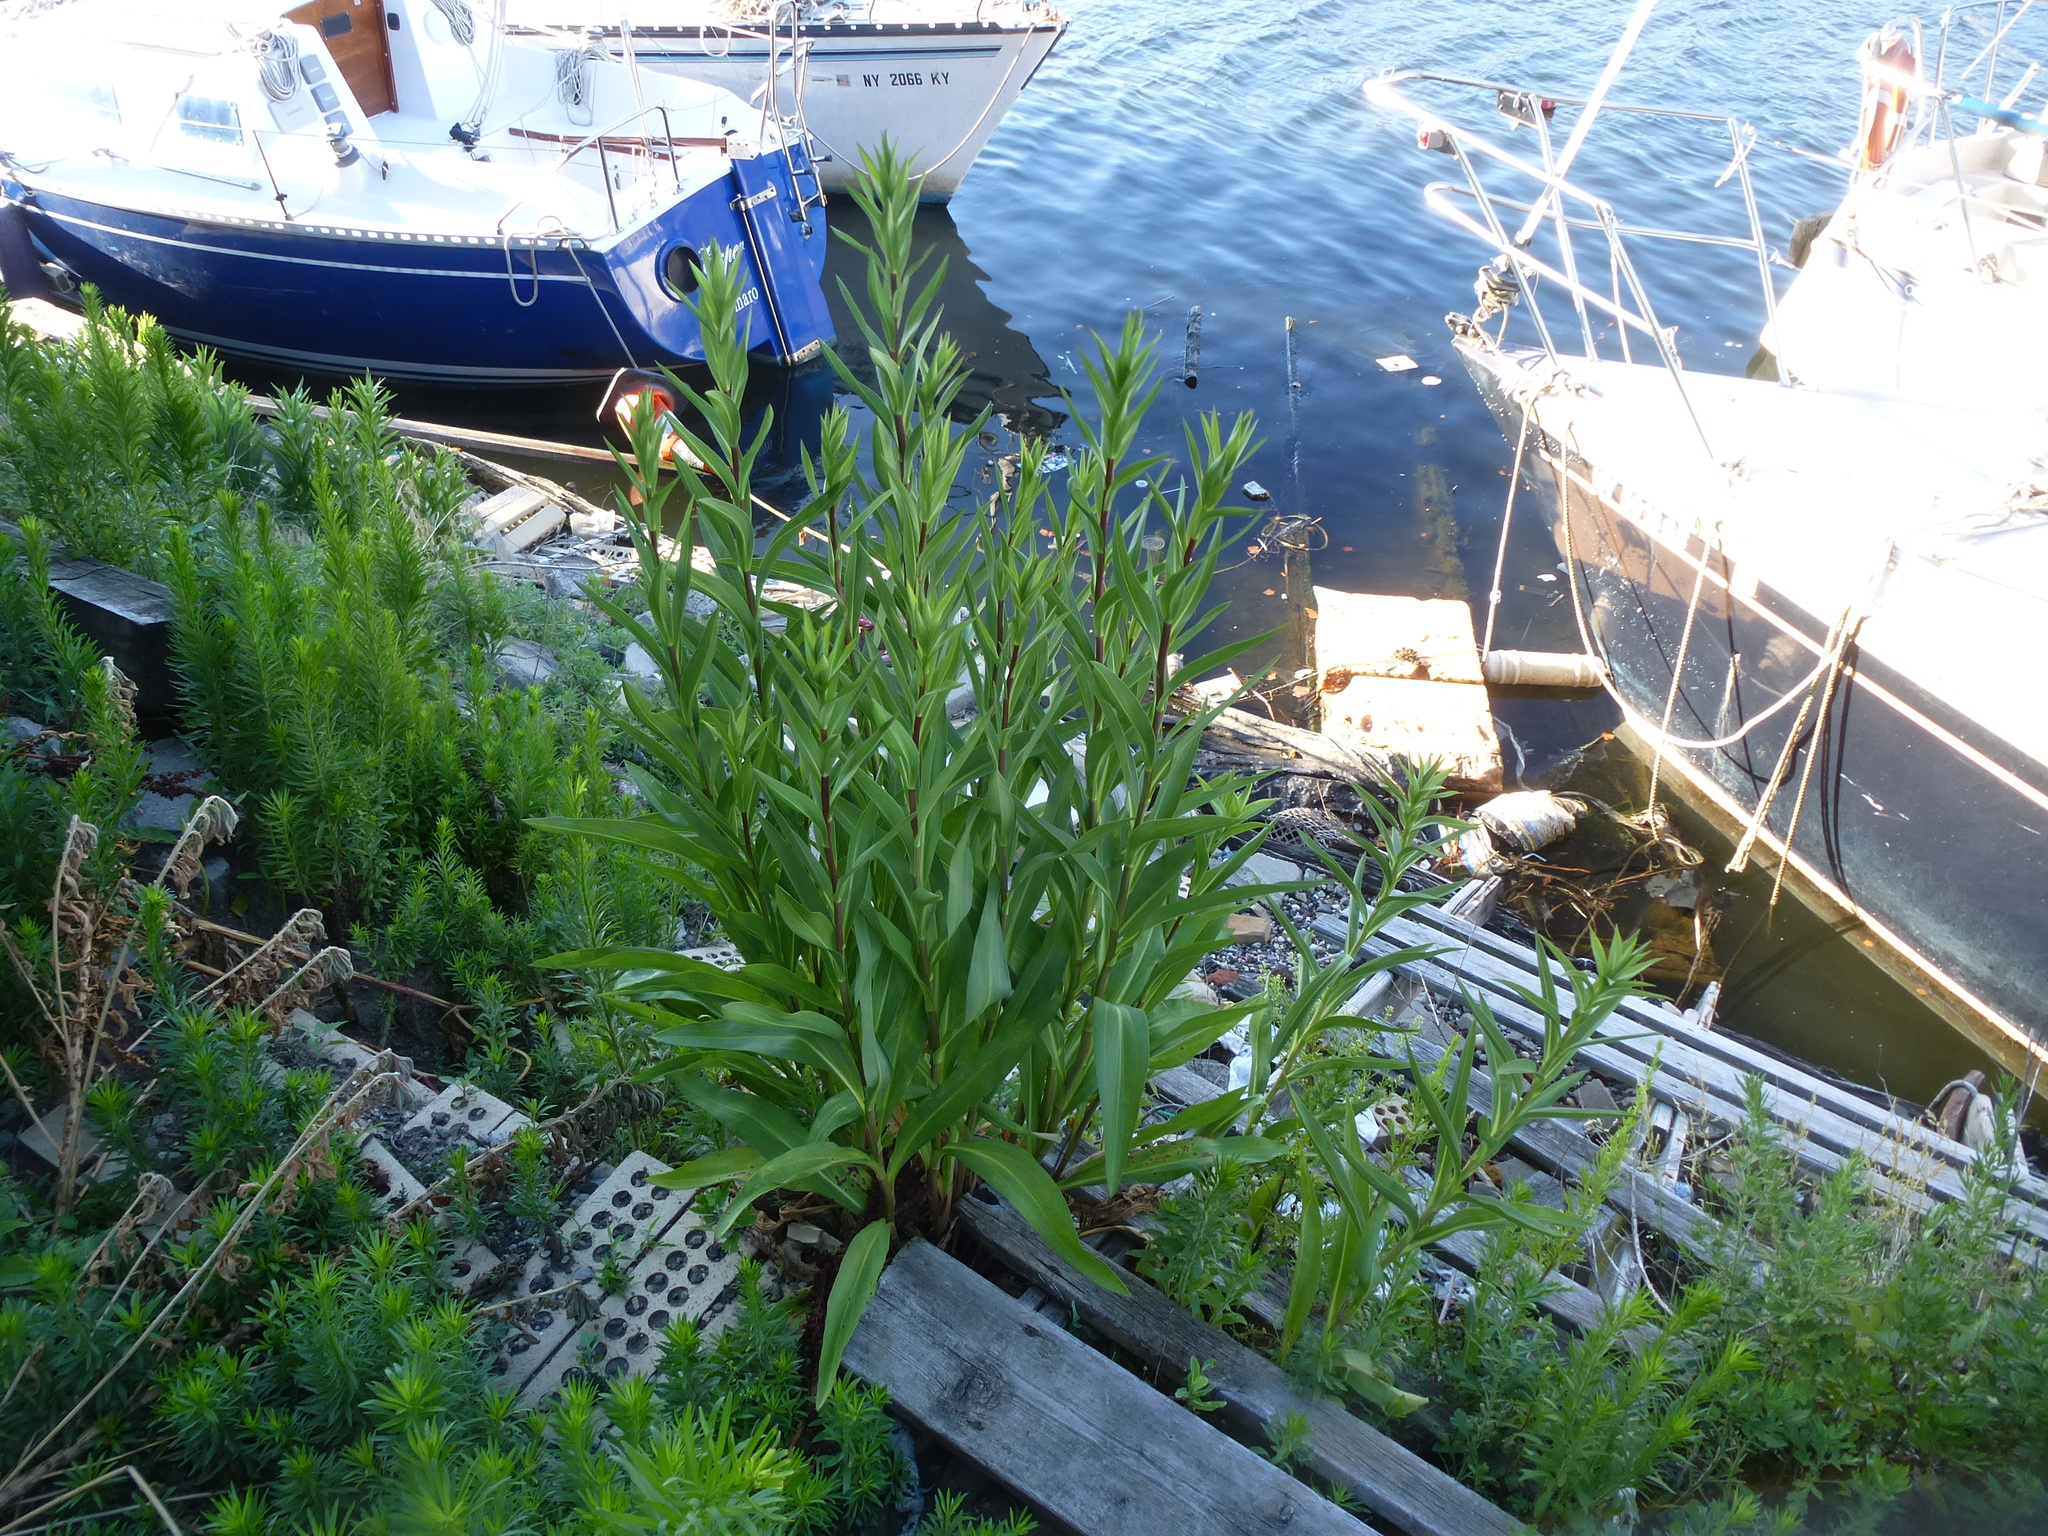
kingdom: Plantae
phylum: Tracheophyta
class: Magnoliopsida
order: Asterales
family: Asteraceae
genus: Solidago
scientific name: Solidago sempervirens
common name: Salt-marsh goldenrod
